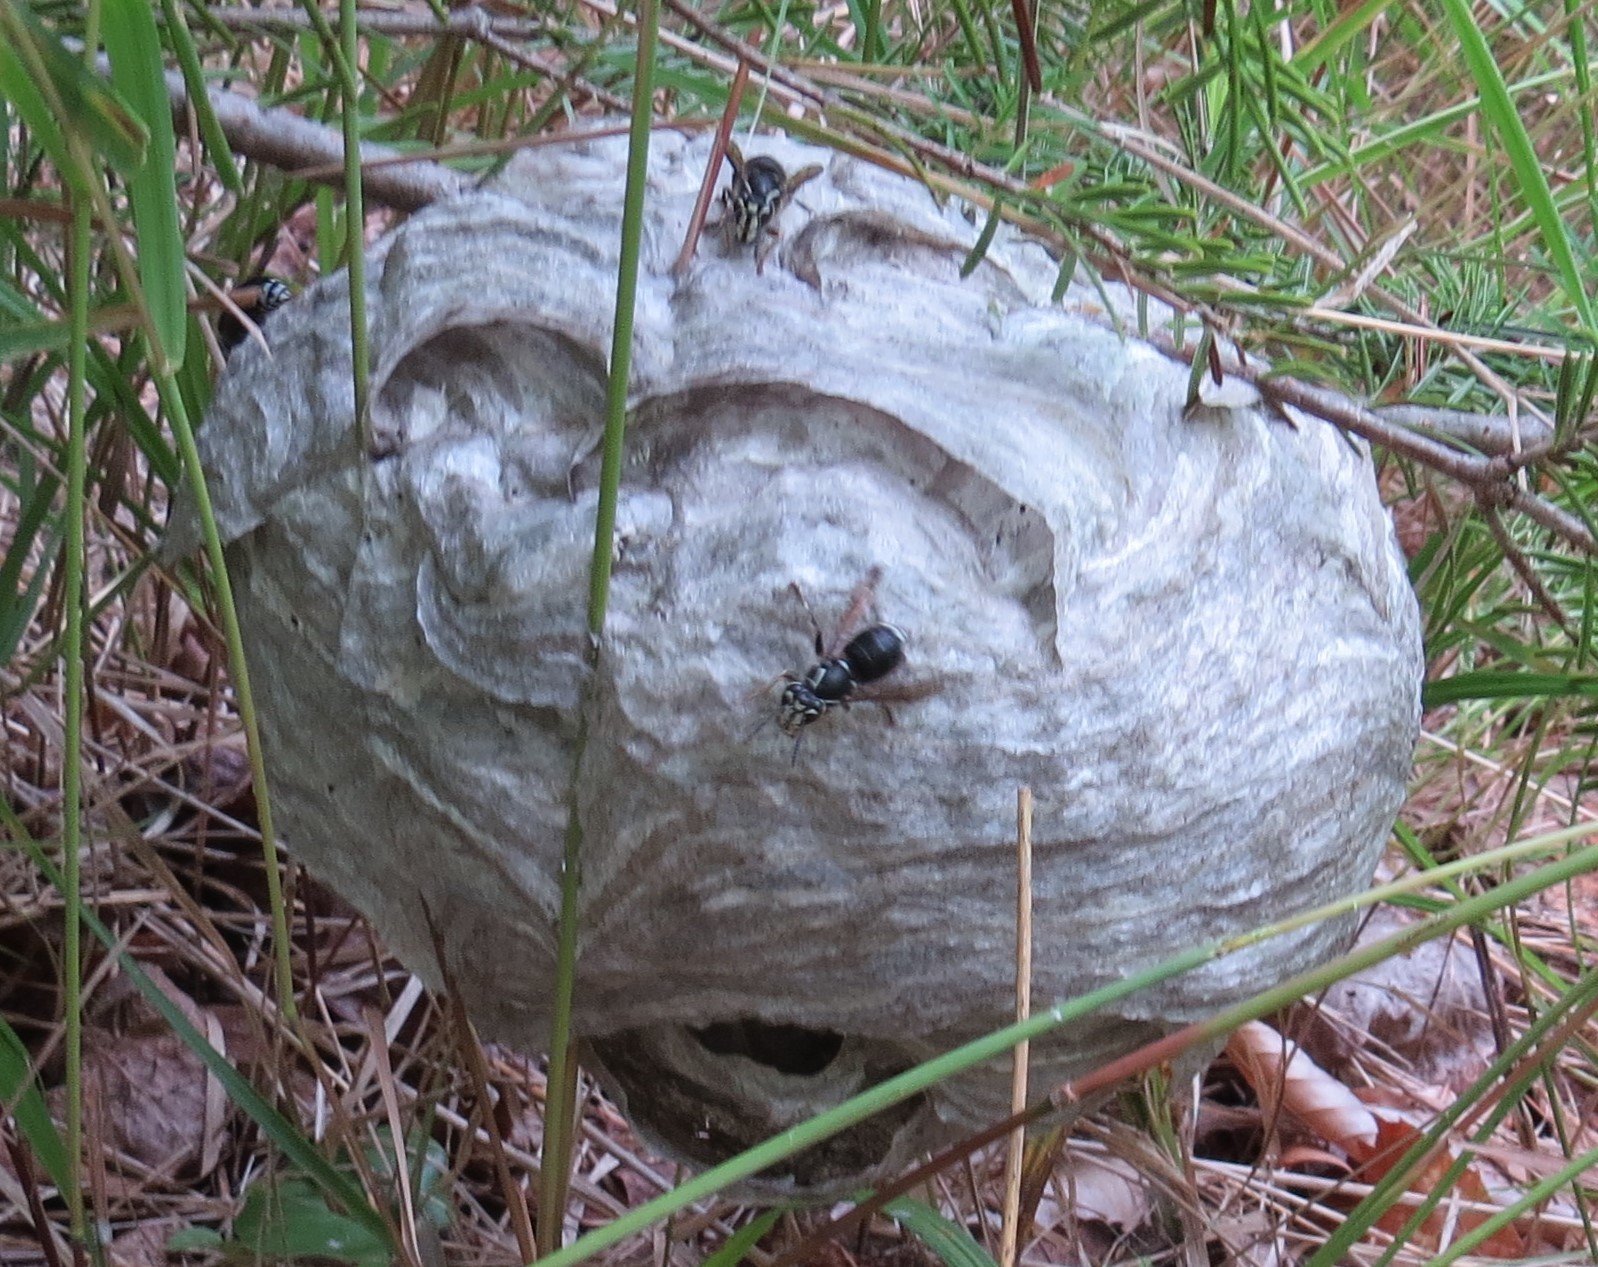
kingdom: Animalia
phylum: Arthropoda
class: Insecta
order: Hymenoptera
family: Vespidae
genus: Dolichovespula
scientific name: Dolichovespula maculata
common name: Bald-faced hornet
